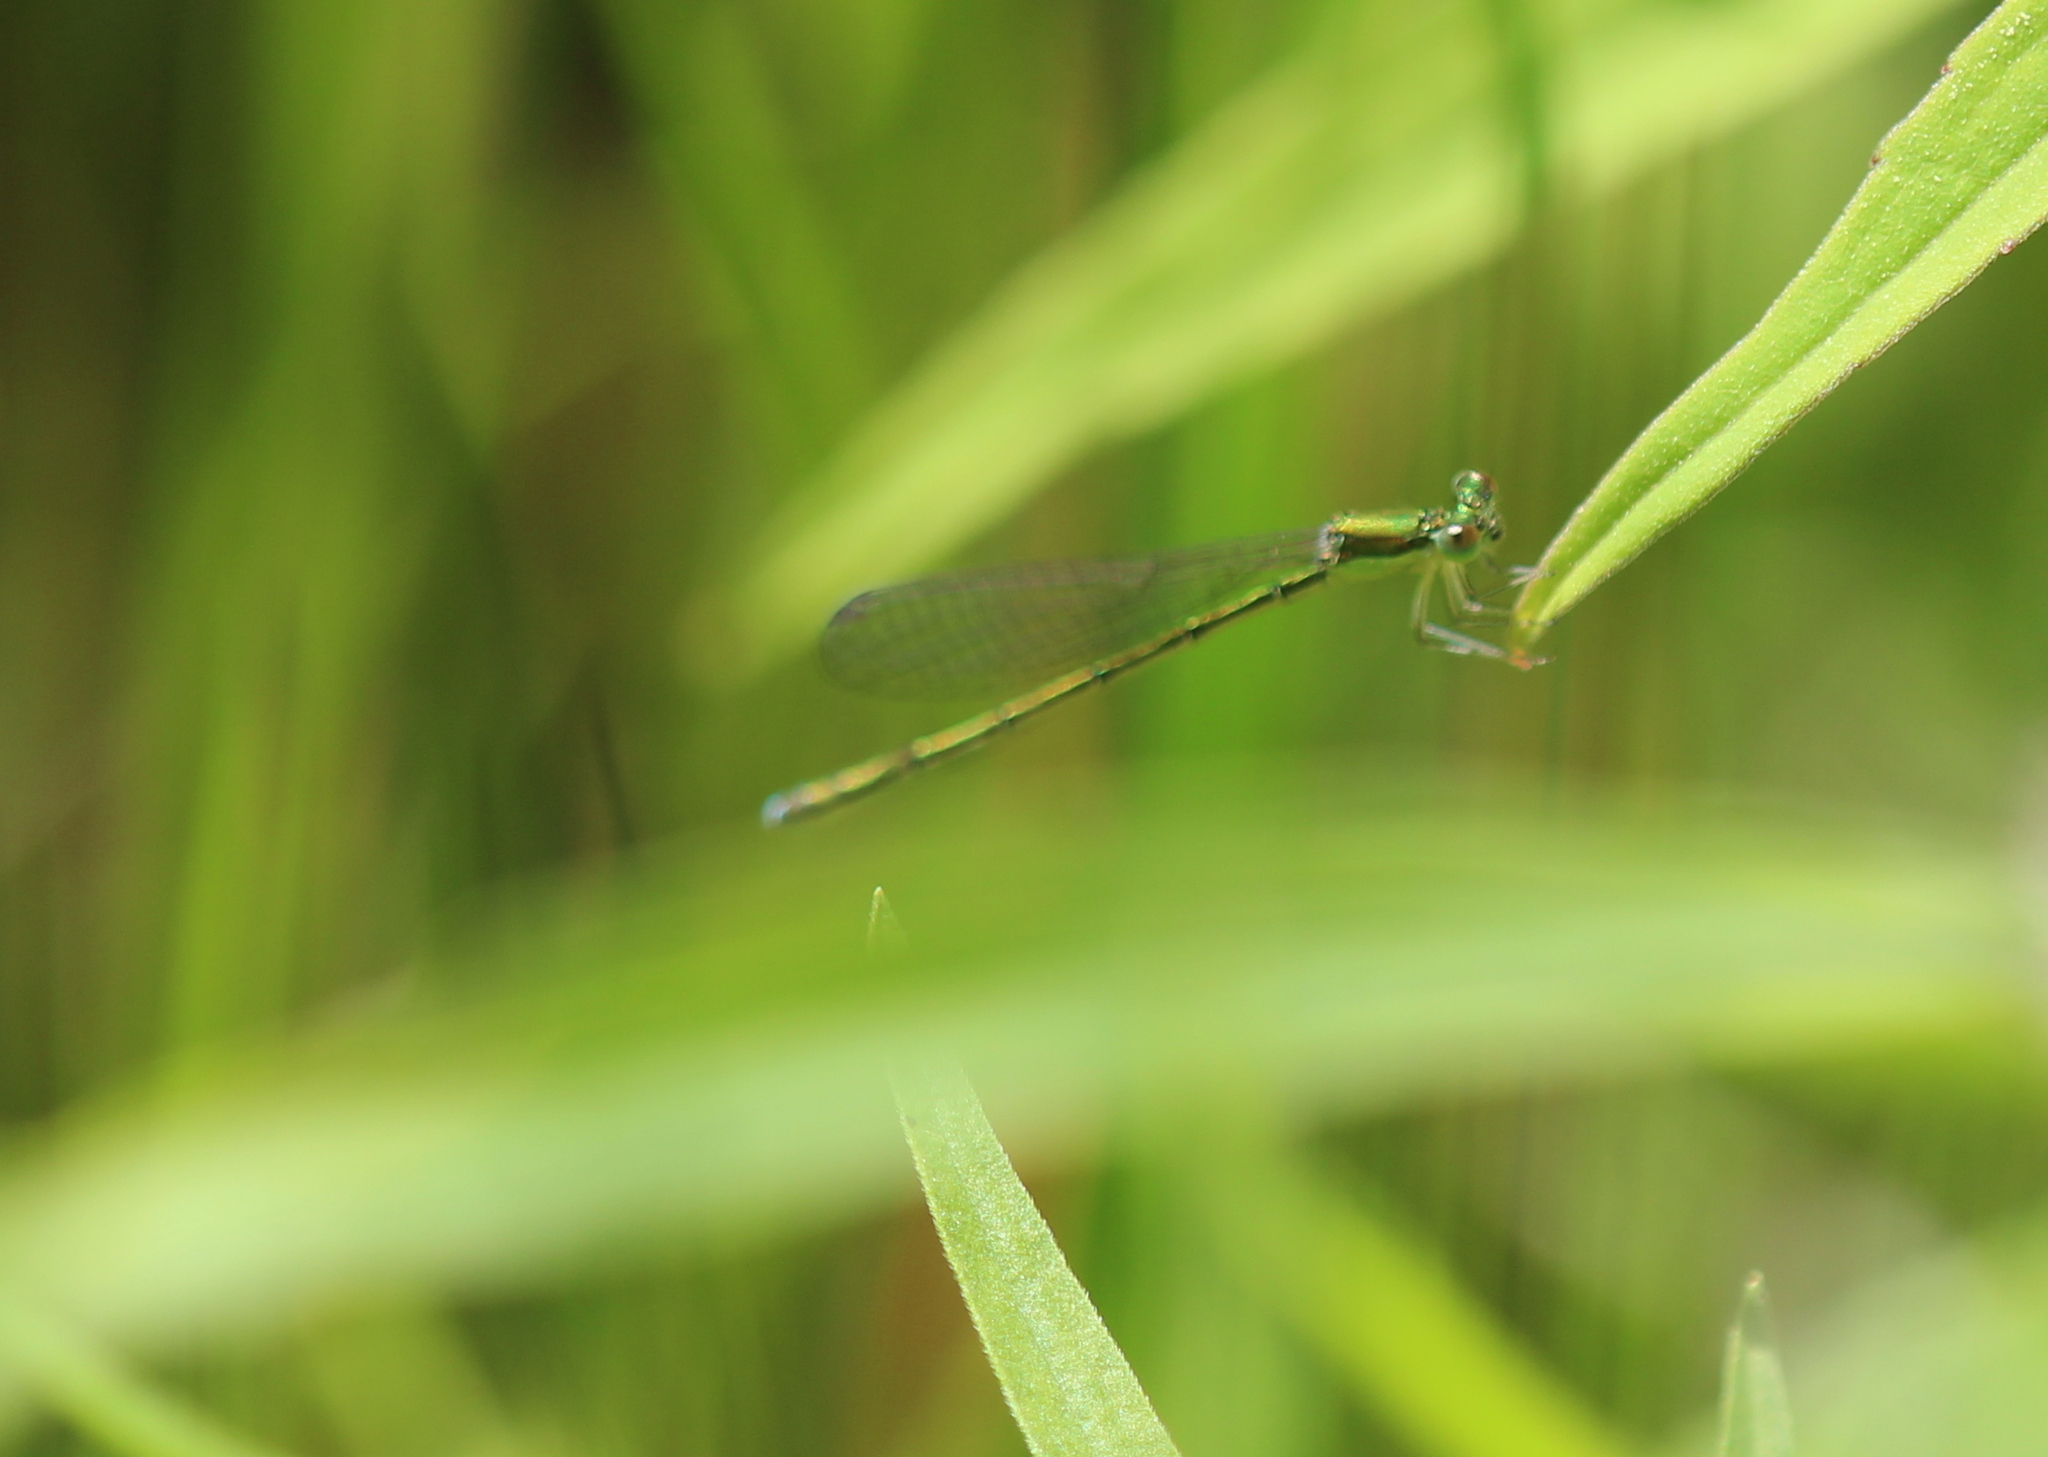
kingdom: Animalia
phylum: Arthropoda
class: Insecta
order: Odonata
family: Coenagrionidae
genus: Nehalennia
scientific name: Nehalennia irene
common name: Sedge sprite
